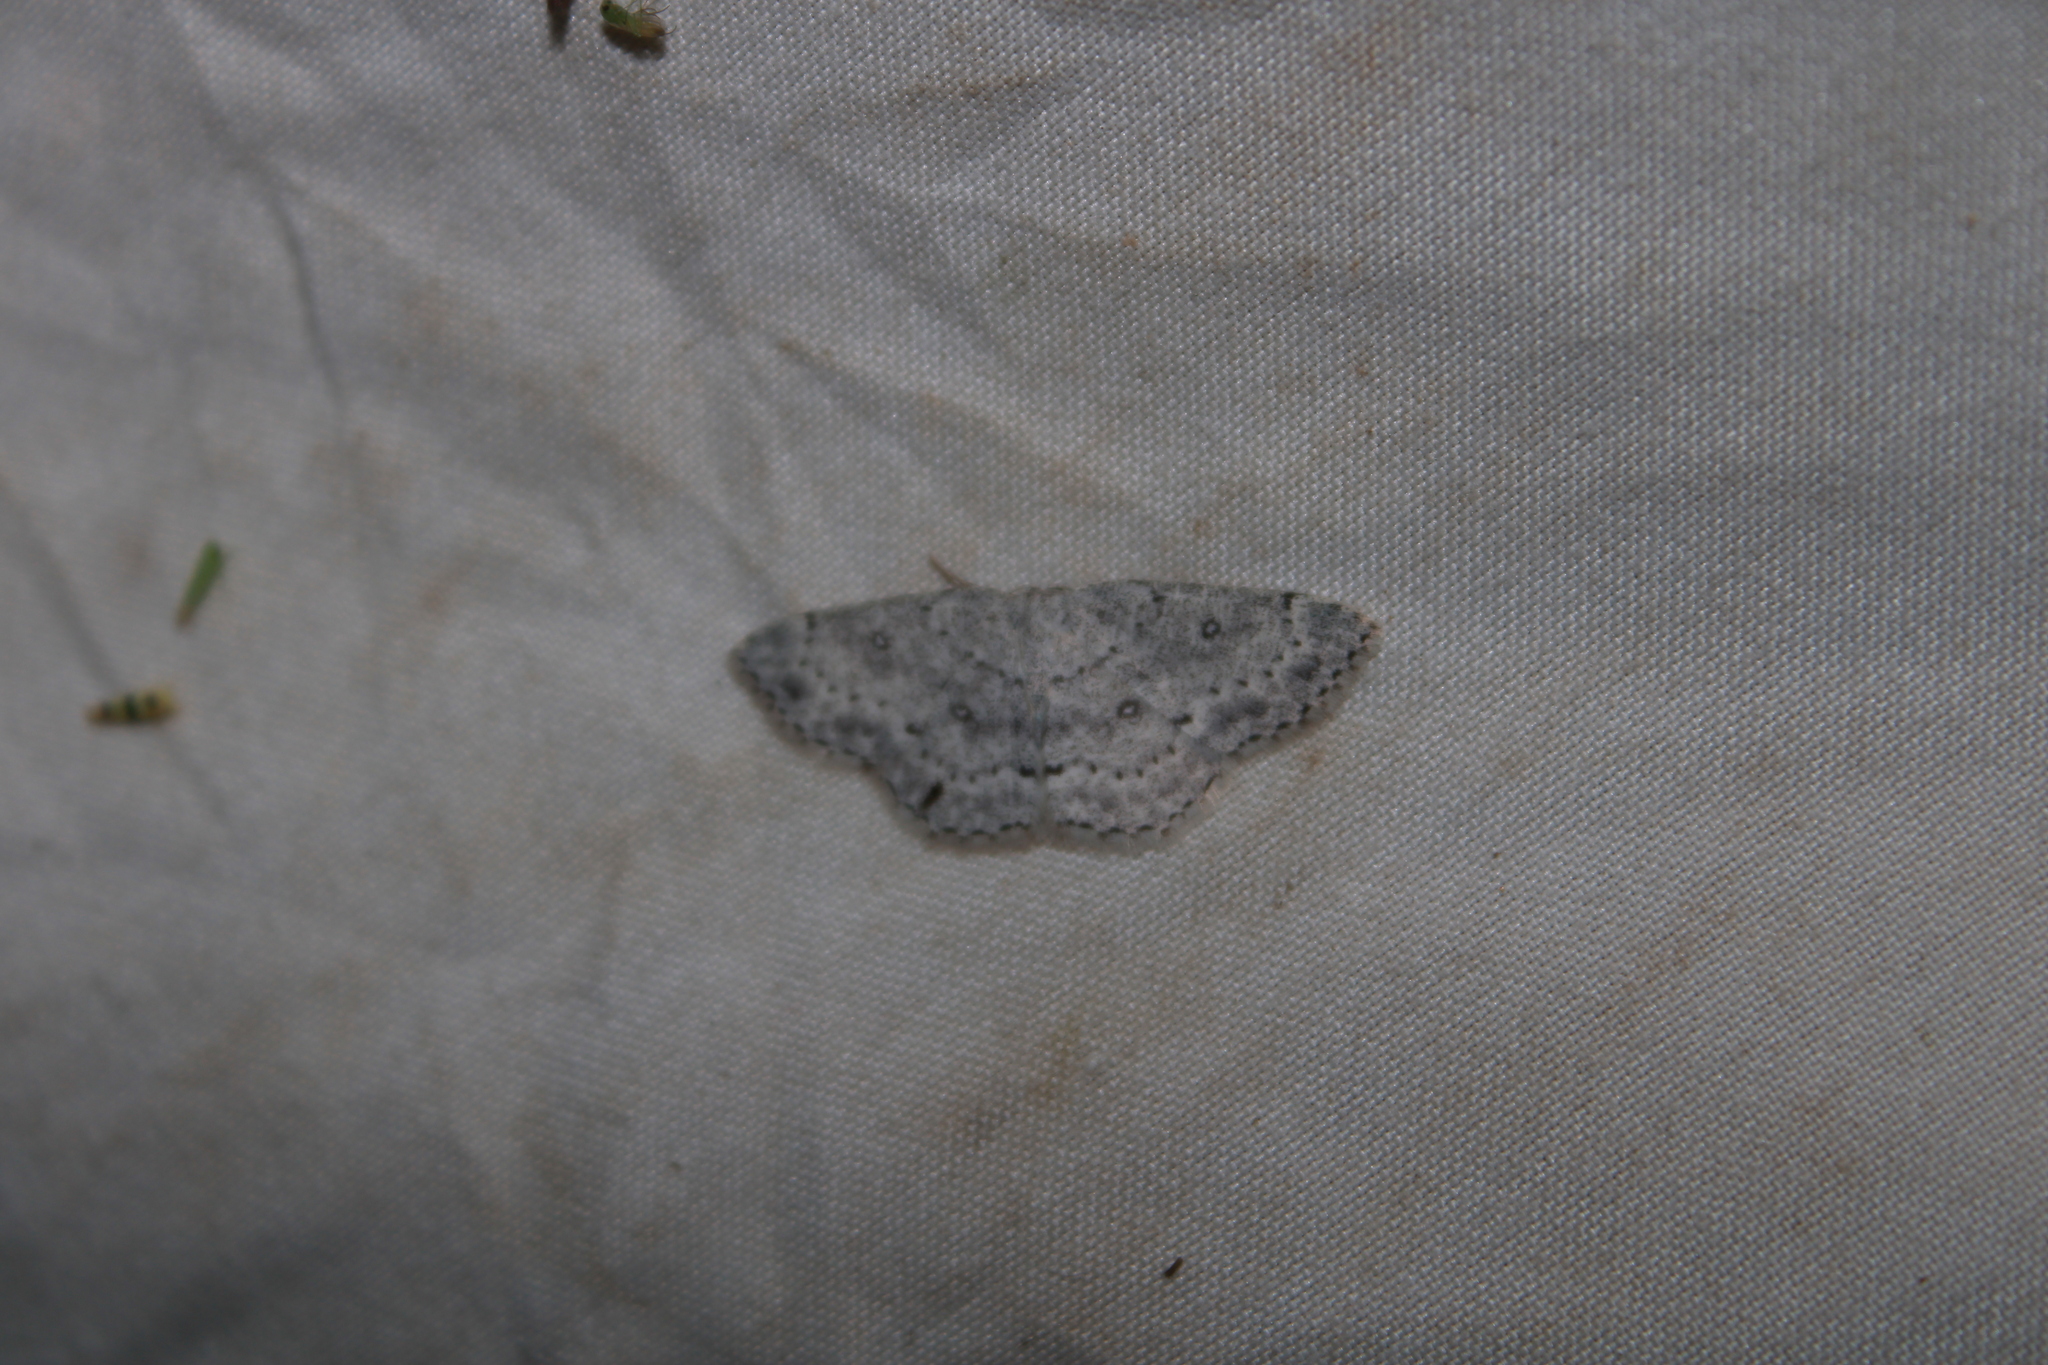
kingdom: Animalia
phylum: Arthropoda
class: Insecta
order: Lepidoptera
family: Geometridae
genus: Cyclophora
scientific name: Cyclophora pendulinaria
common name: Sweet fern geometer
